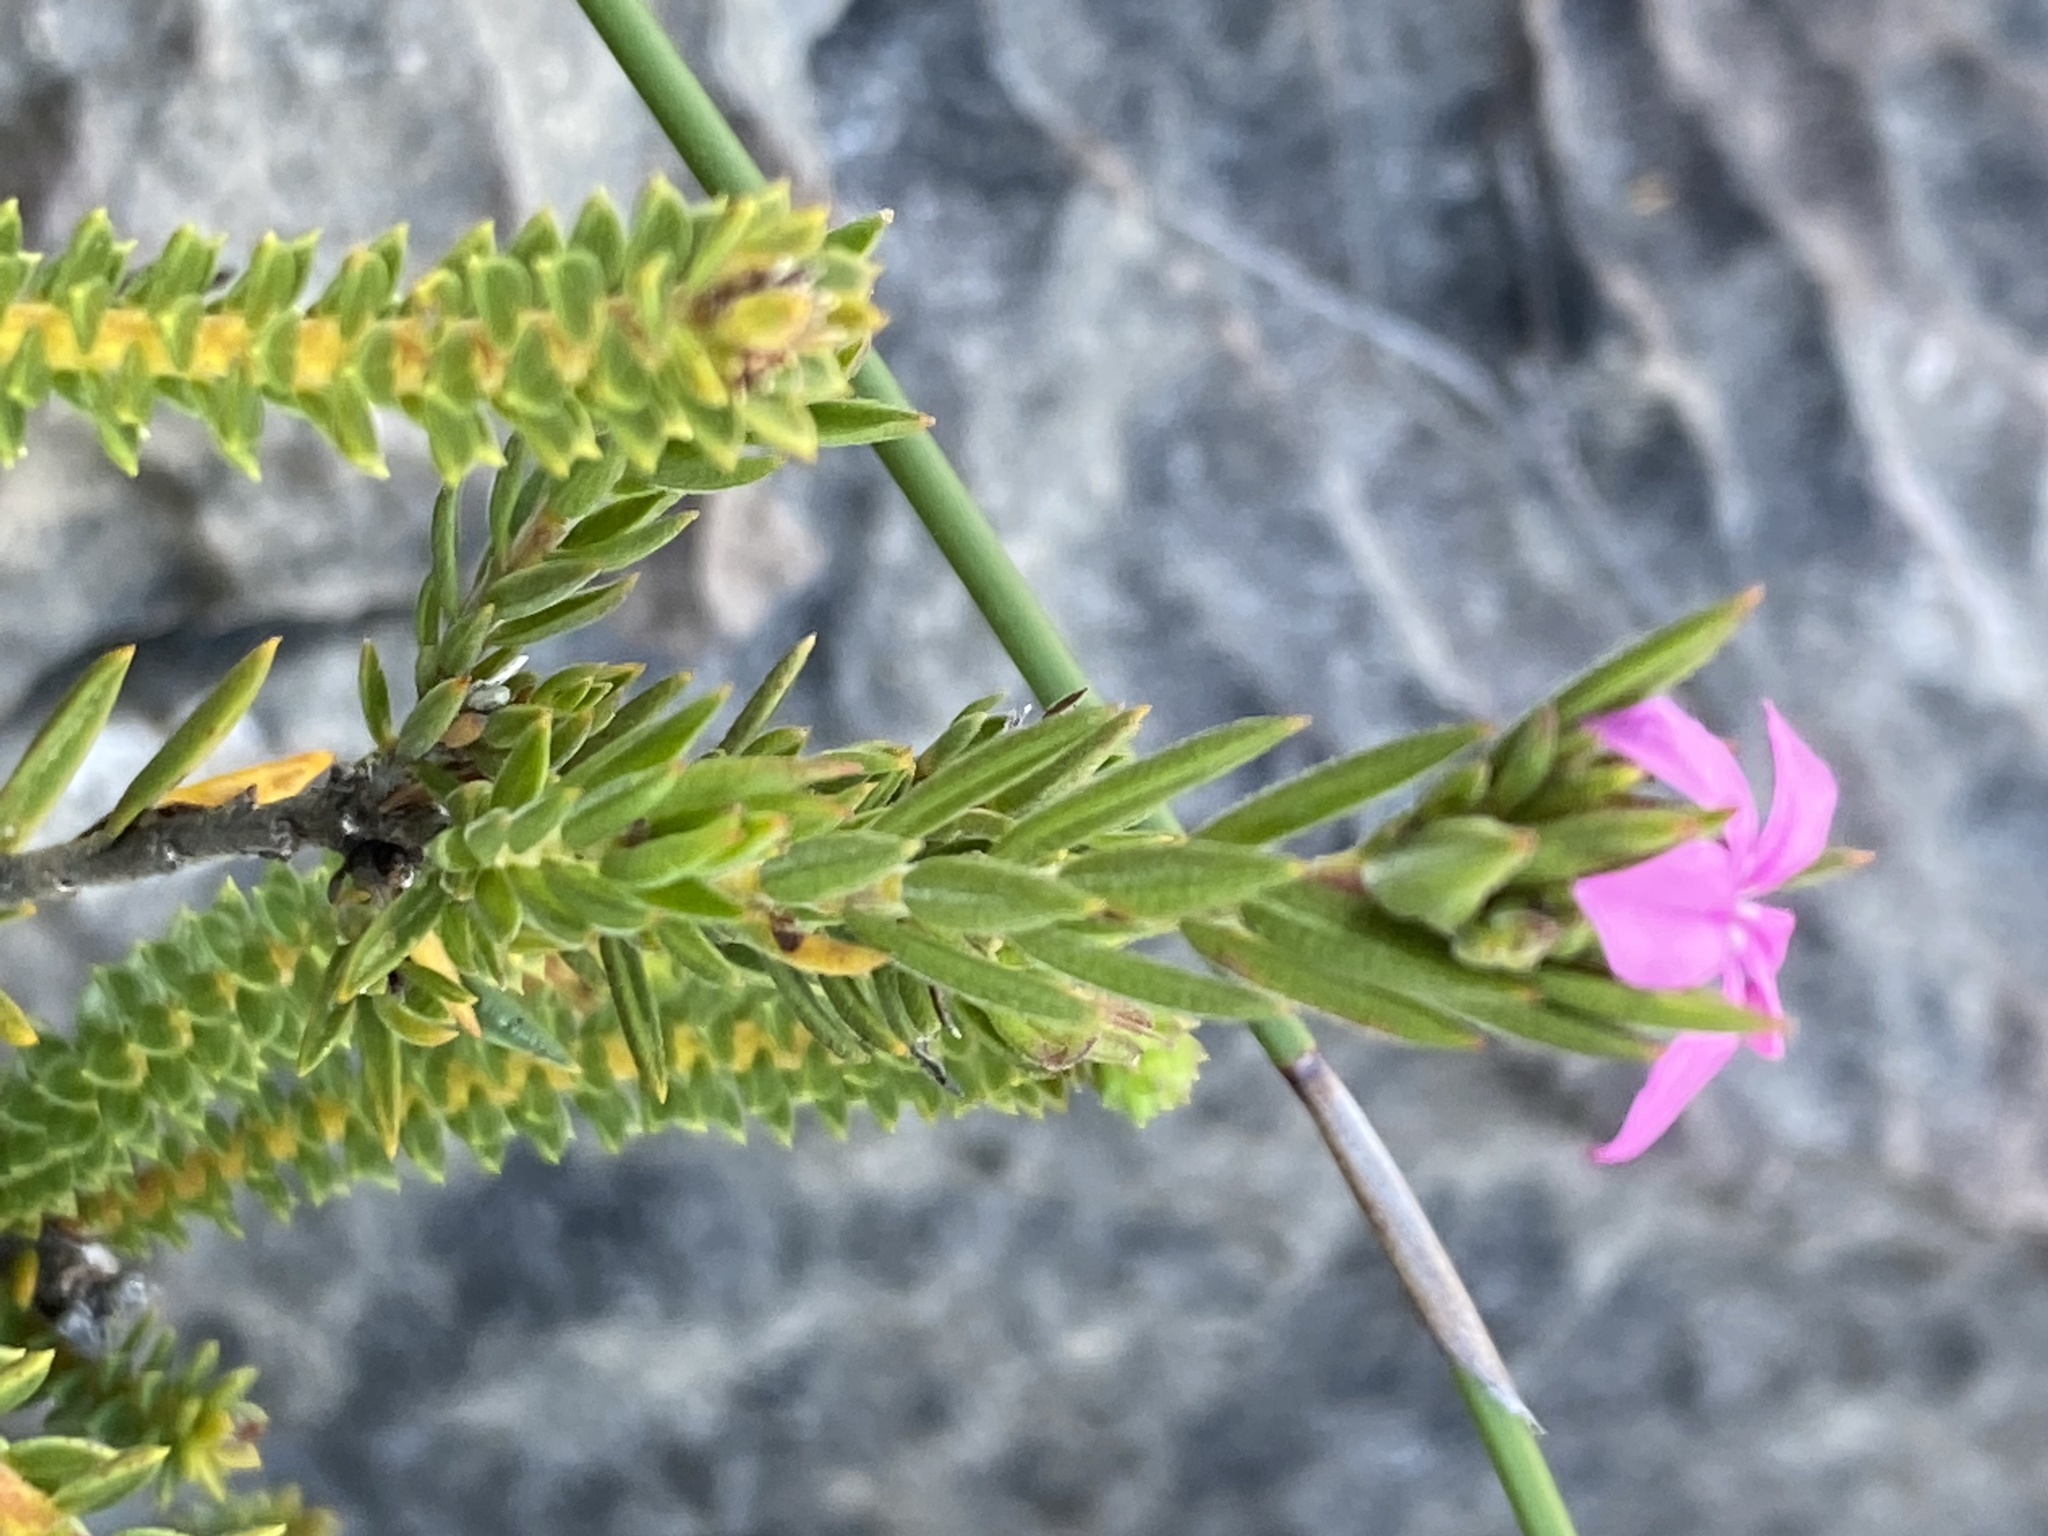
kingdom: Plantae
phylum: Tracheophyta
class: Magnoliopsida
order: Sapindales
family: Rutaceae
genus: Acmadenia
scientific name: Acmadenia obtusata
